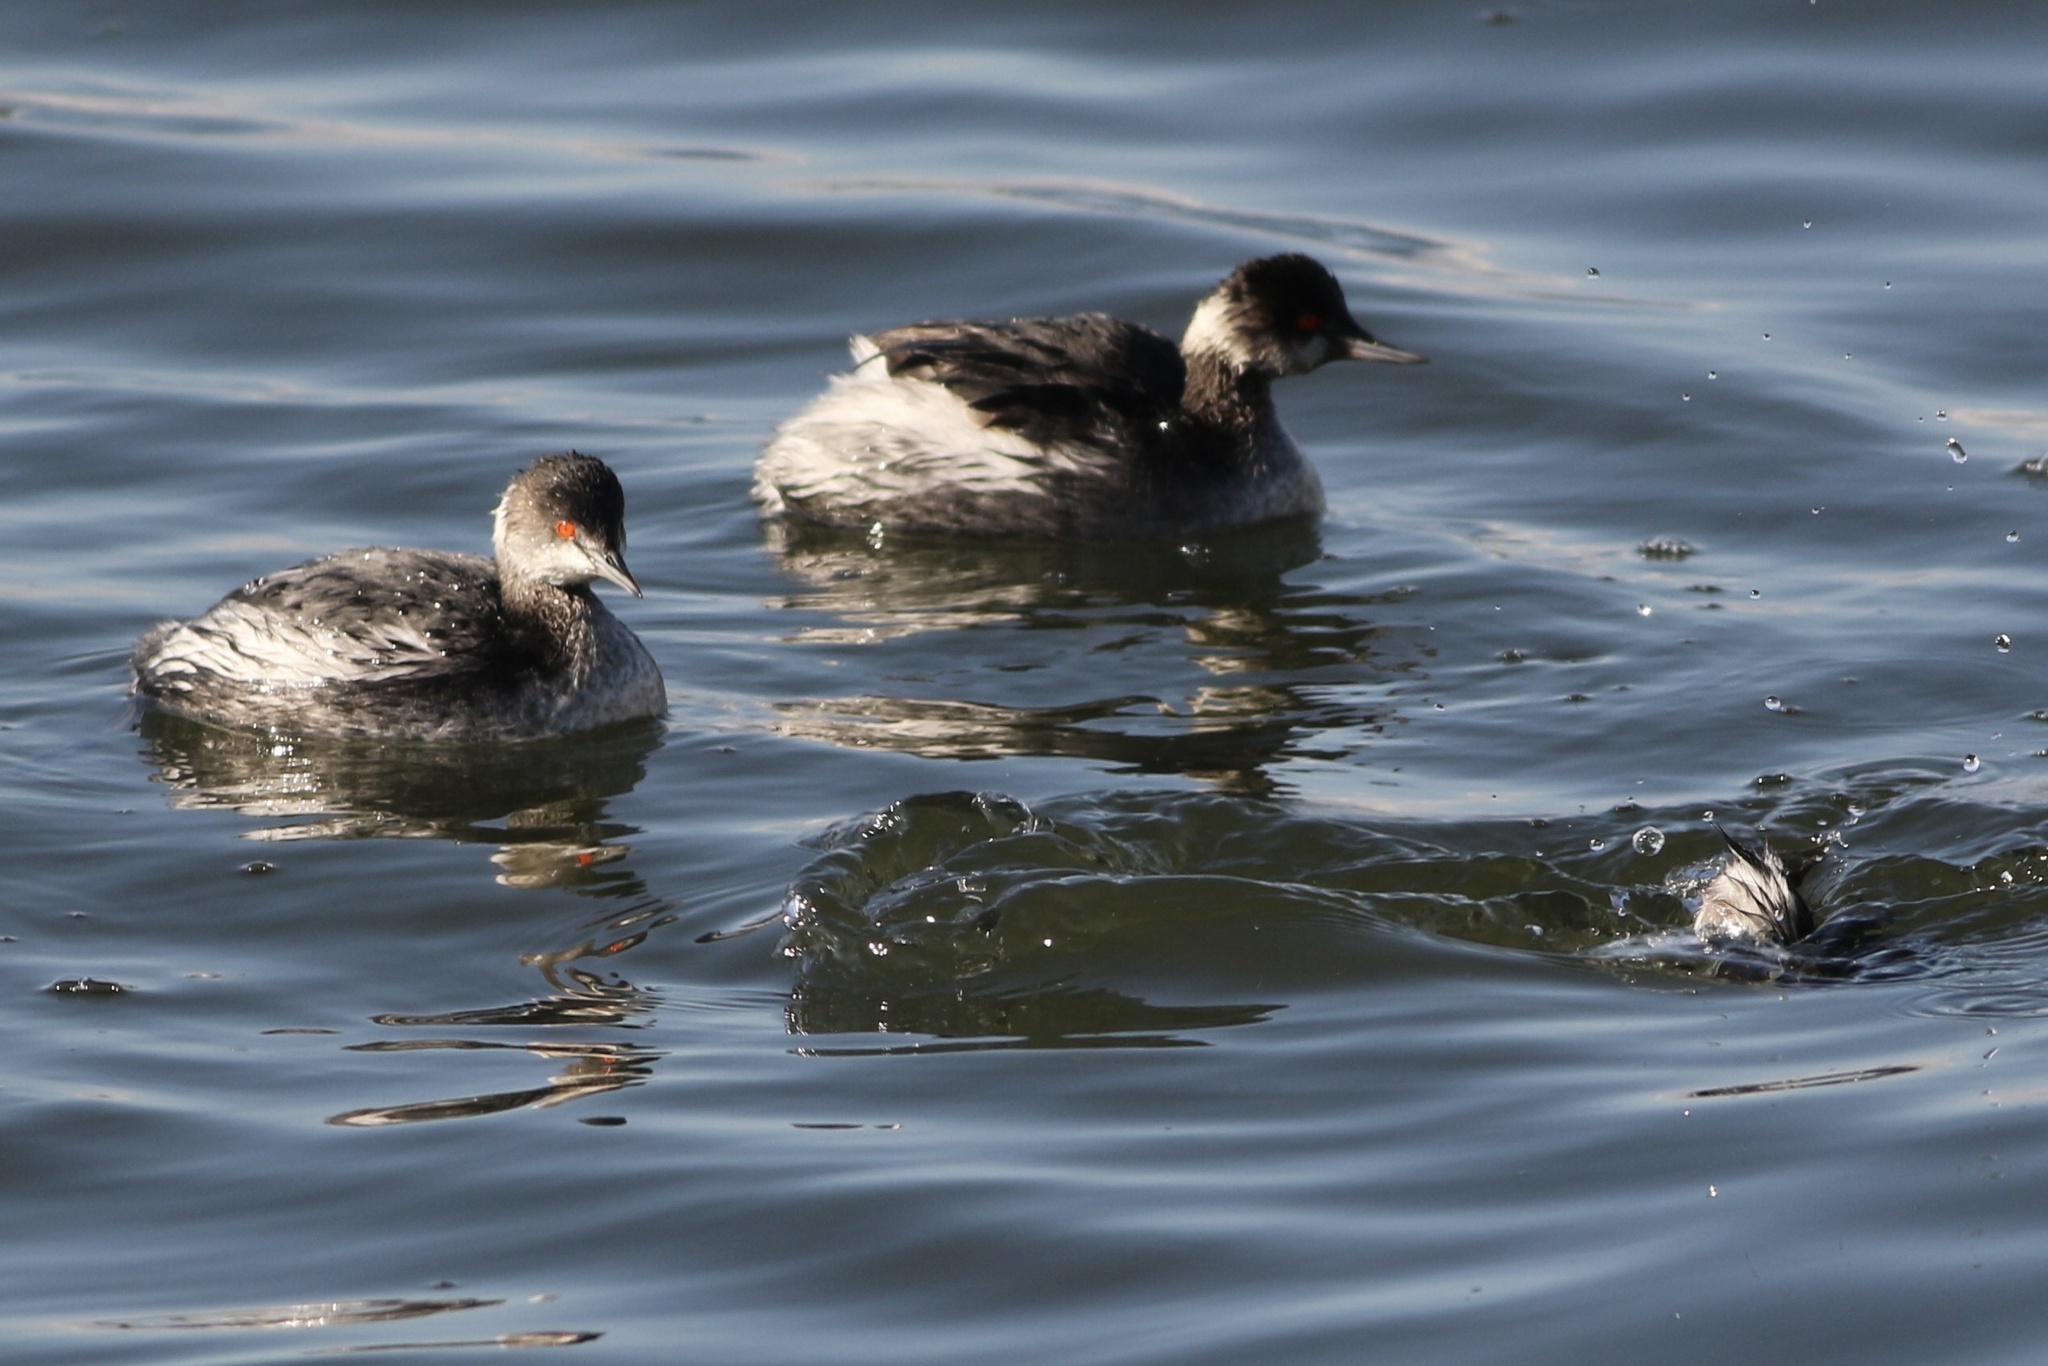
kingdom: Animalia
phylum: Chordata
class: Aves
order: Podicipediformes
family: Podicipedidae
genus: Podiceps
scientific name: Podiceps nigricollis
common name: Black-necked grebe
